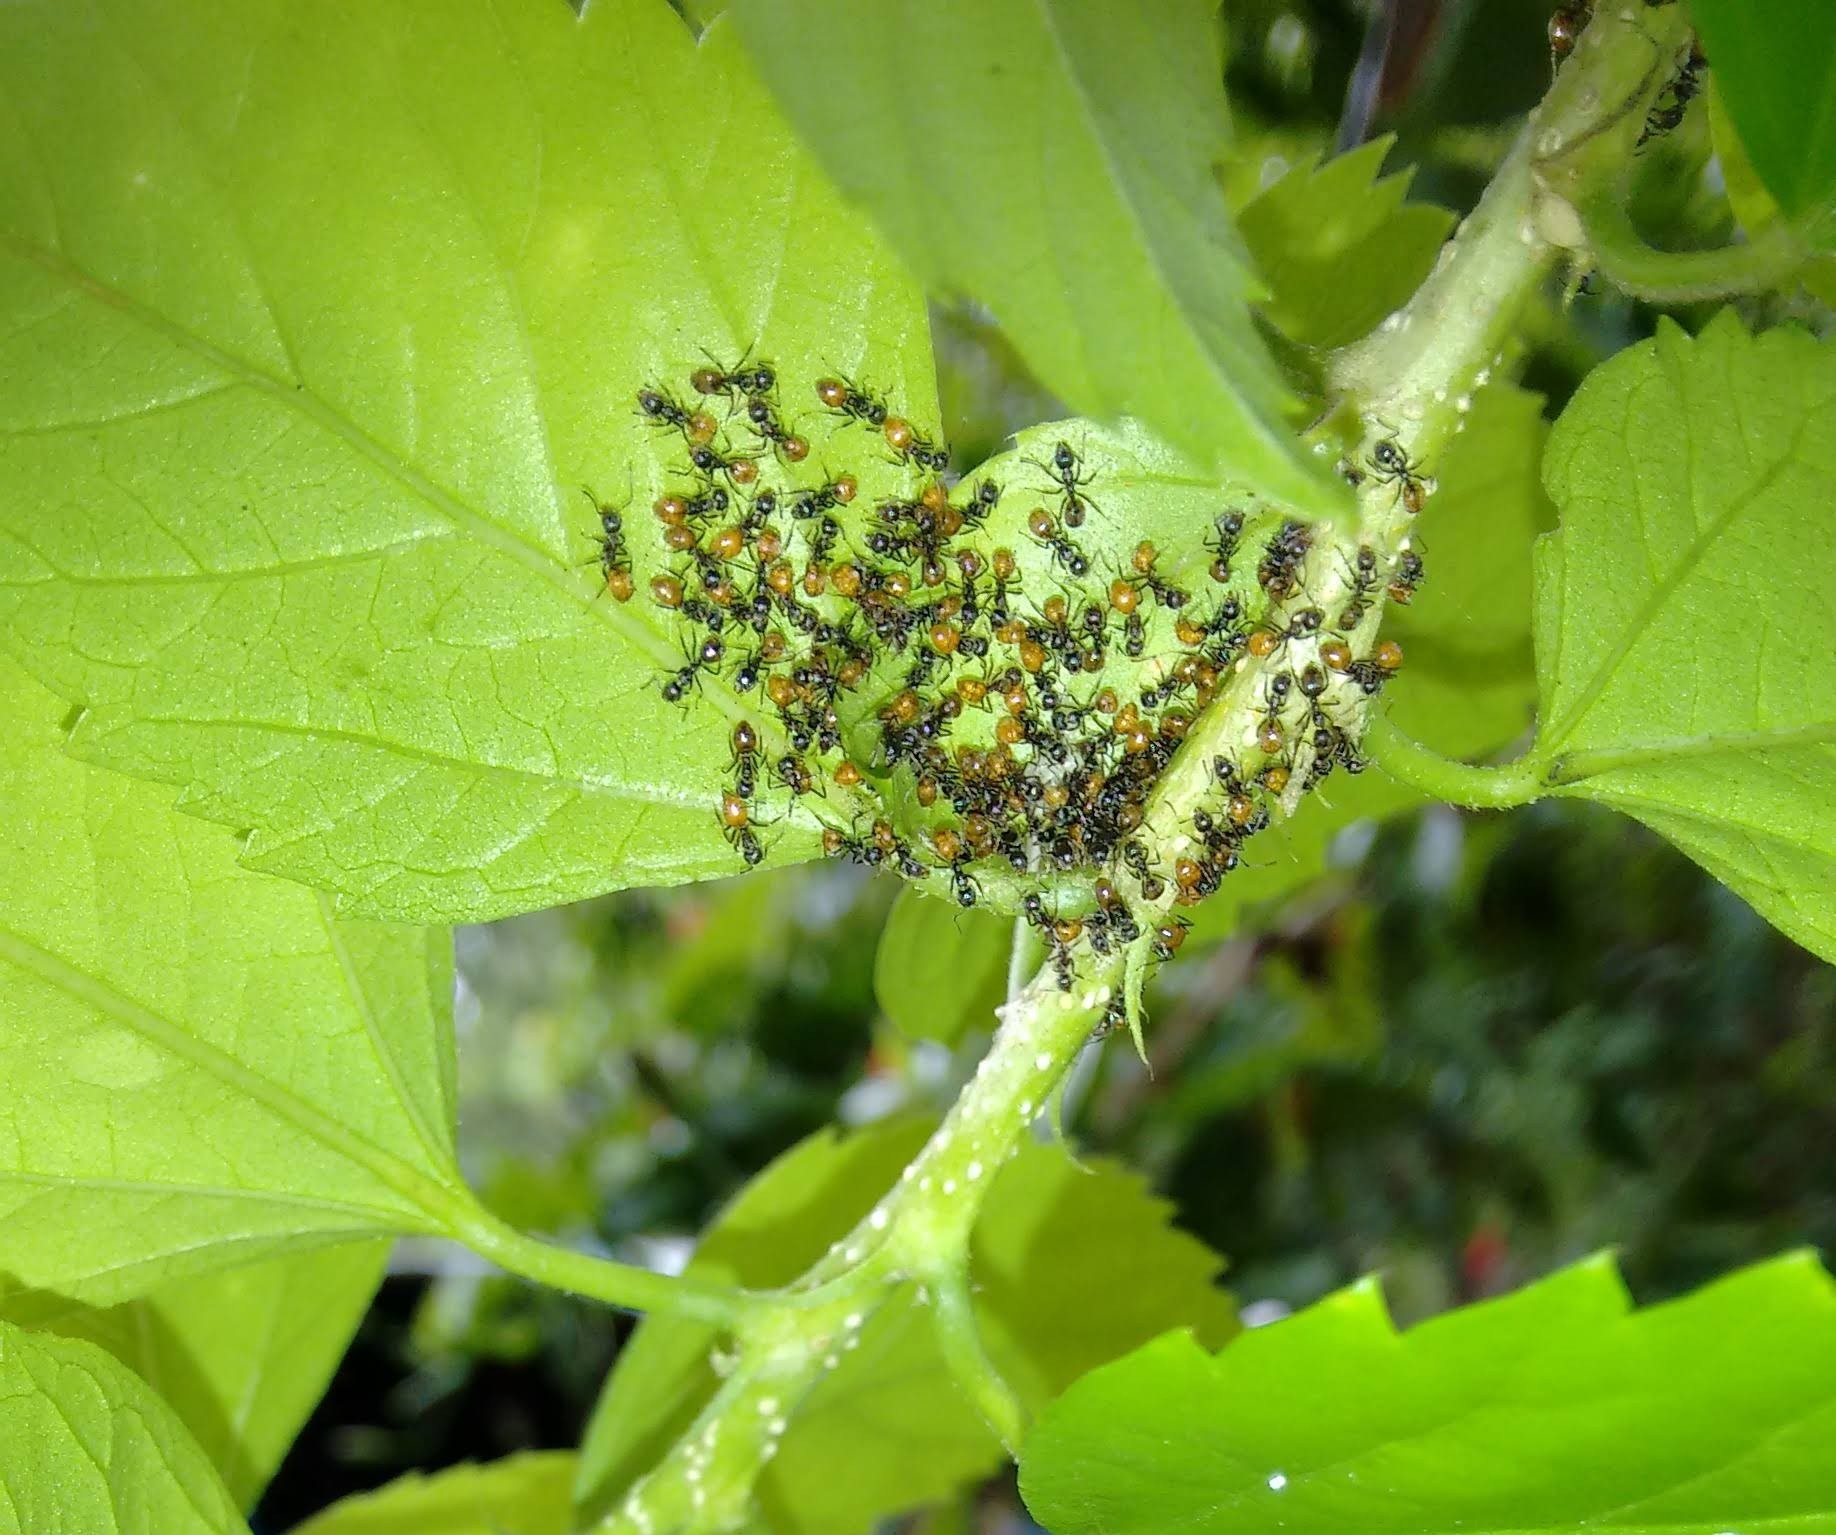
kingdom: Animalia
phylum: Arthropoda
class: Insecta
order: Hymenoptera
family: Formicidae
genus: Dolichoderus
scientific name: Dolichoderus taprobanae
